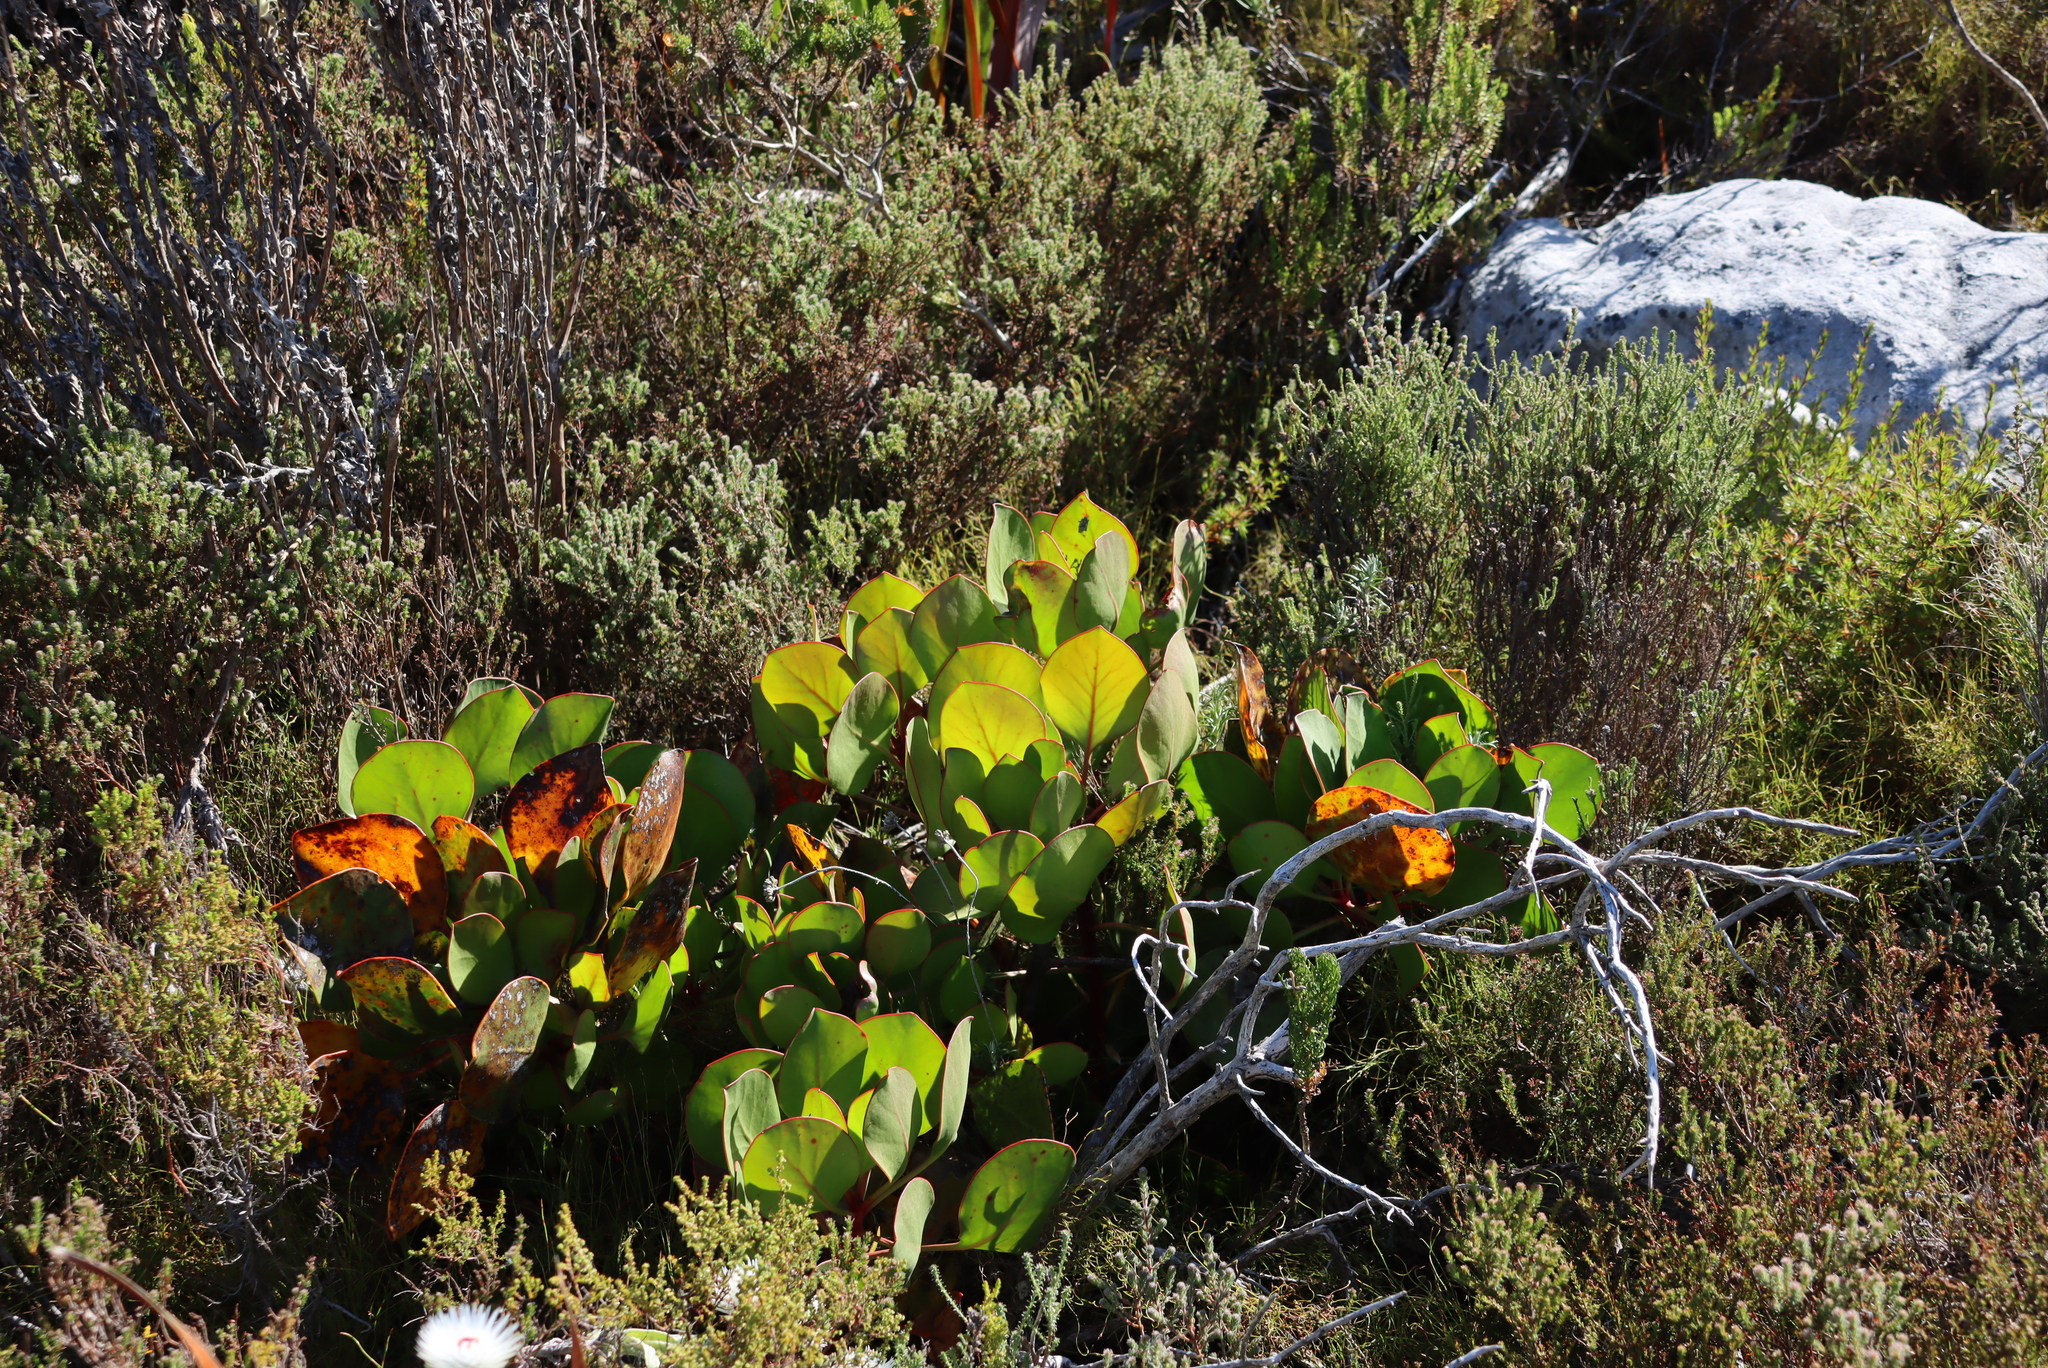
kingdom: Plantae
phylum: Tracheophyta
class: Magnoliopsida
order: Proteales
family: Proteaceae
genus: Protea
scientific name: Protea cynaroides
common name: King protea
